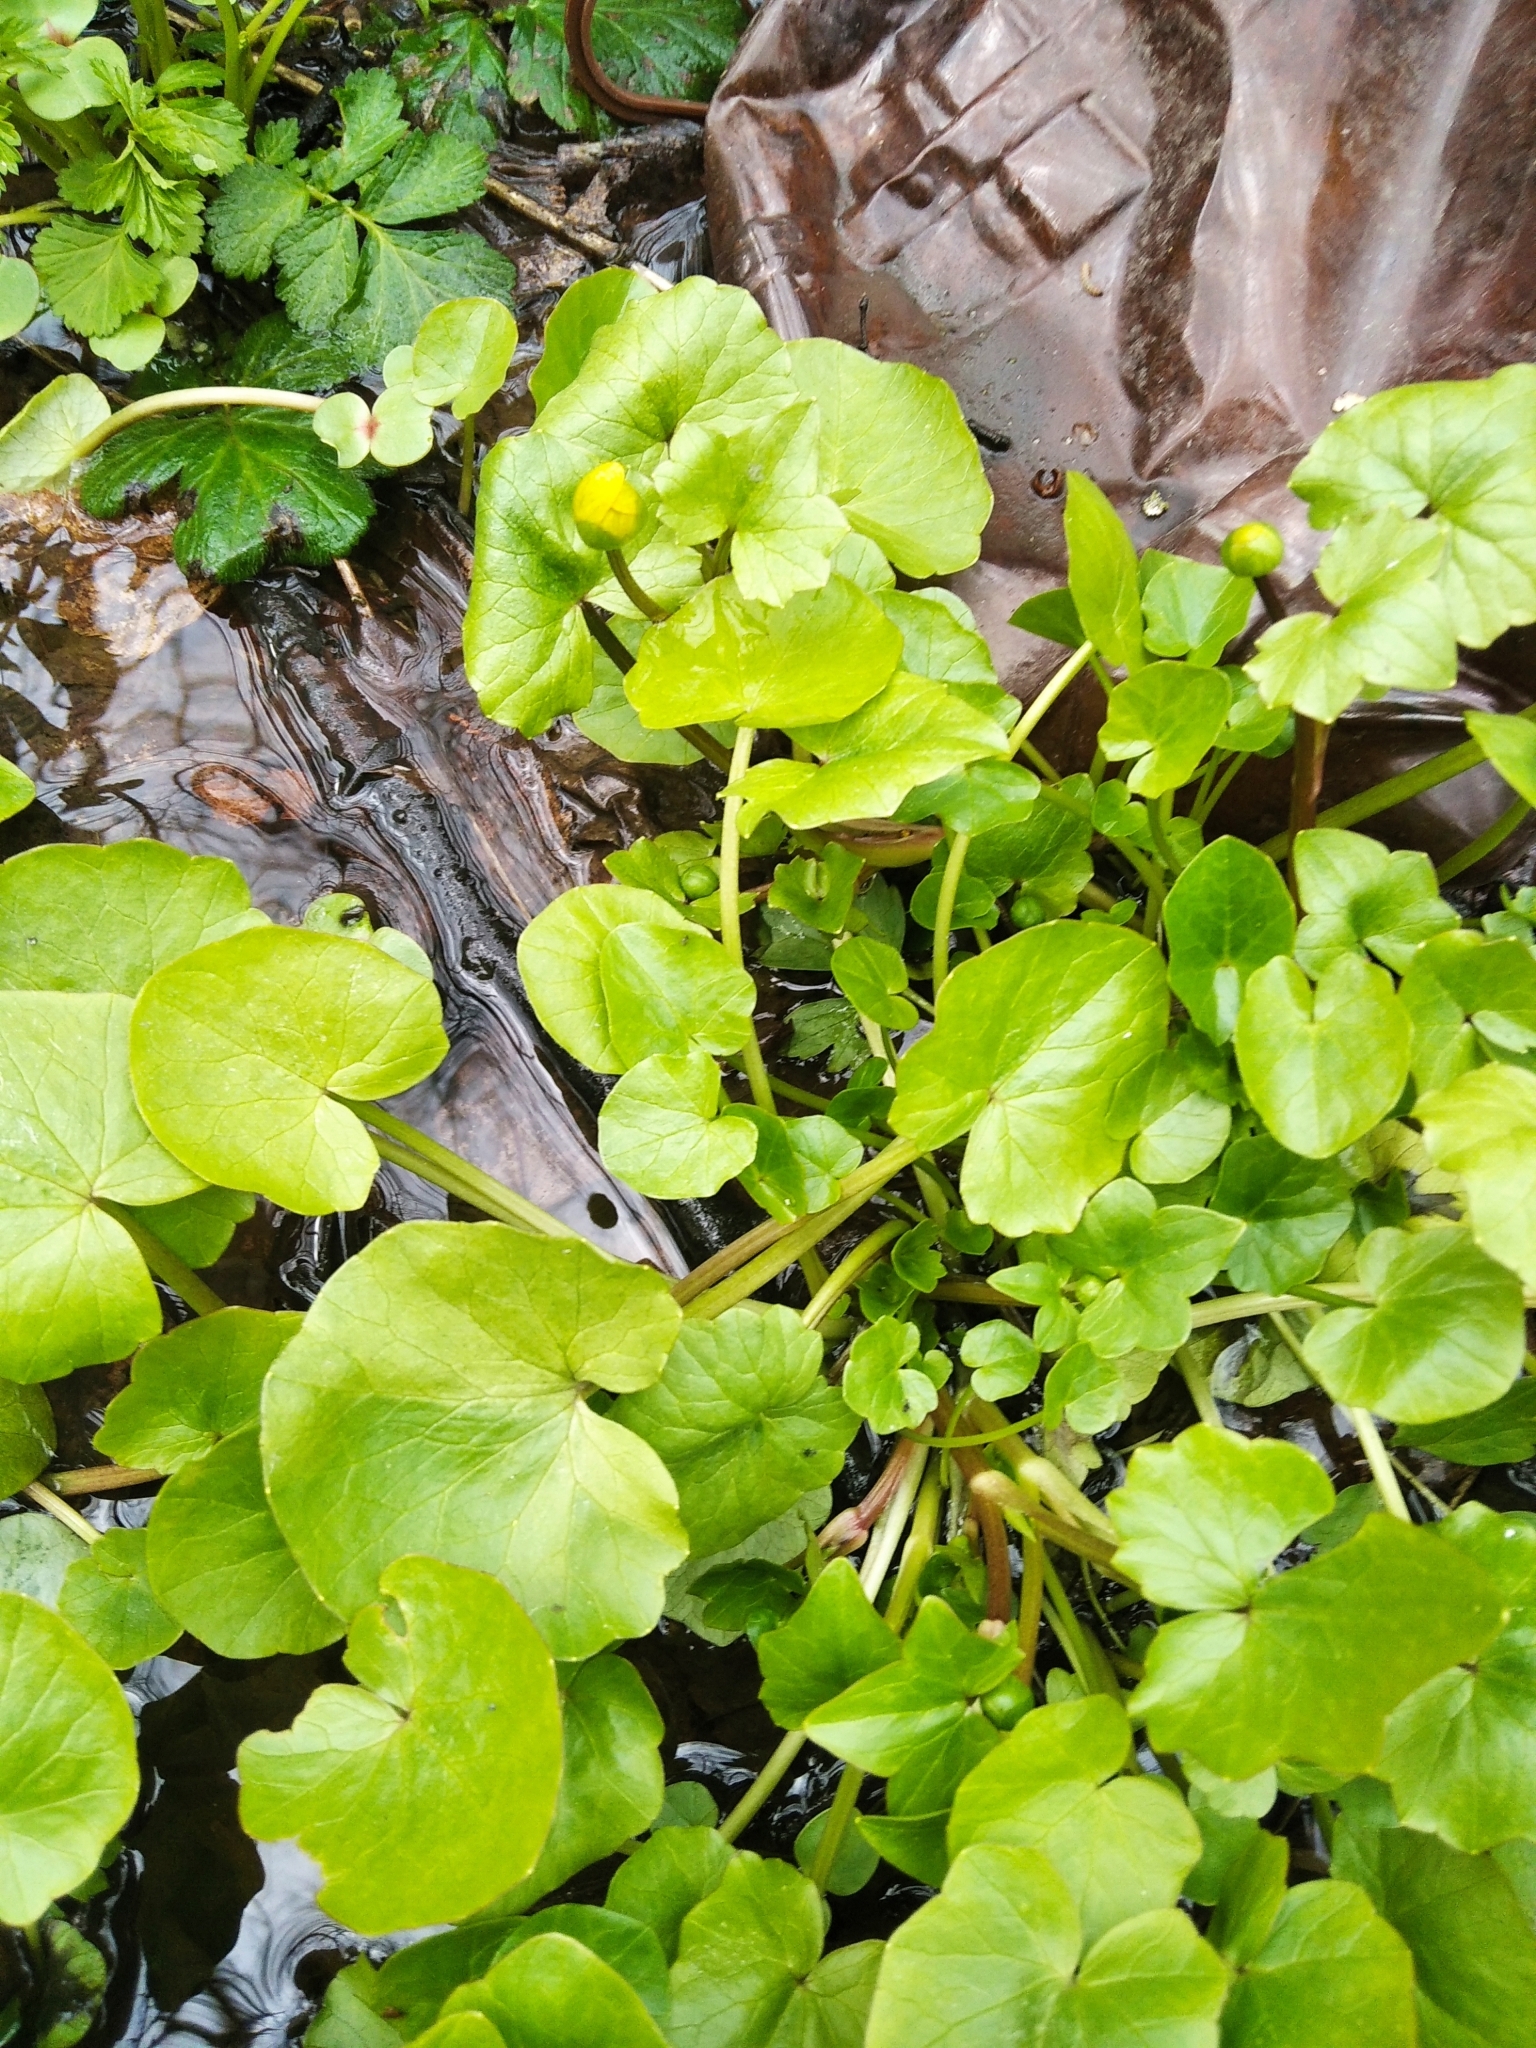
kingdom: Plantae
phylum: Tracheophyta
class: Magnoliopsida
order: Ranunculales
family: Ranunculaceae
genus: Ficaria
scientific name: Ficaria verna
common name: Lesser celandine
